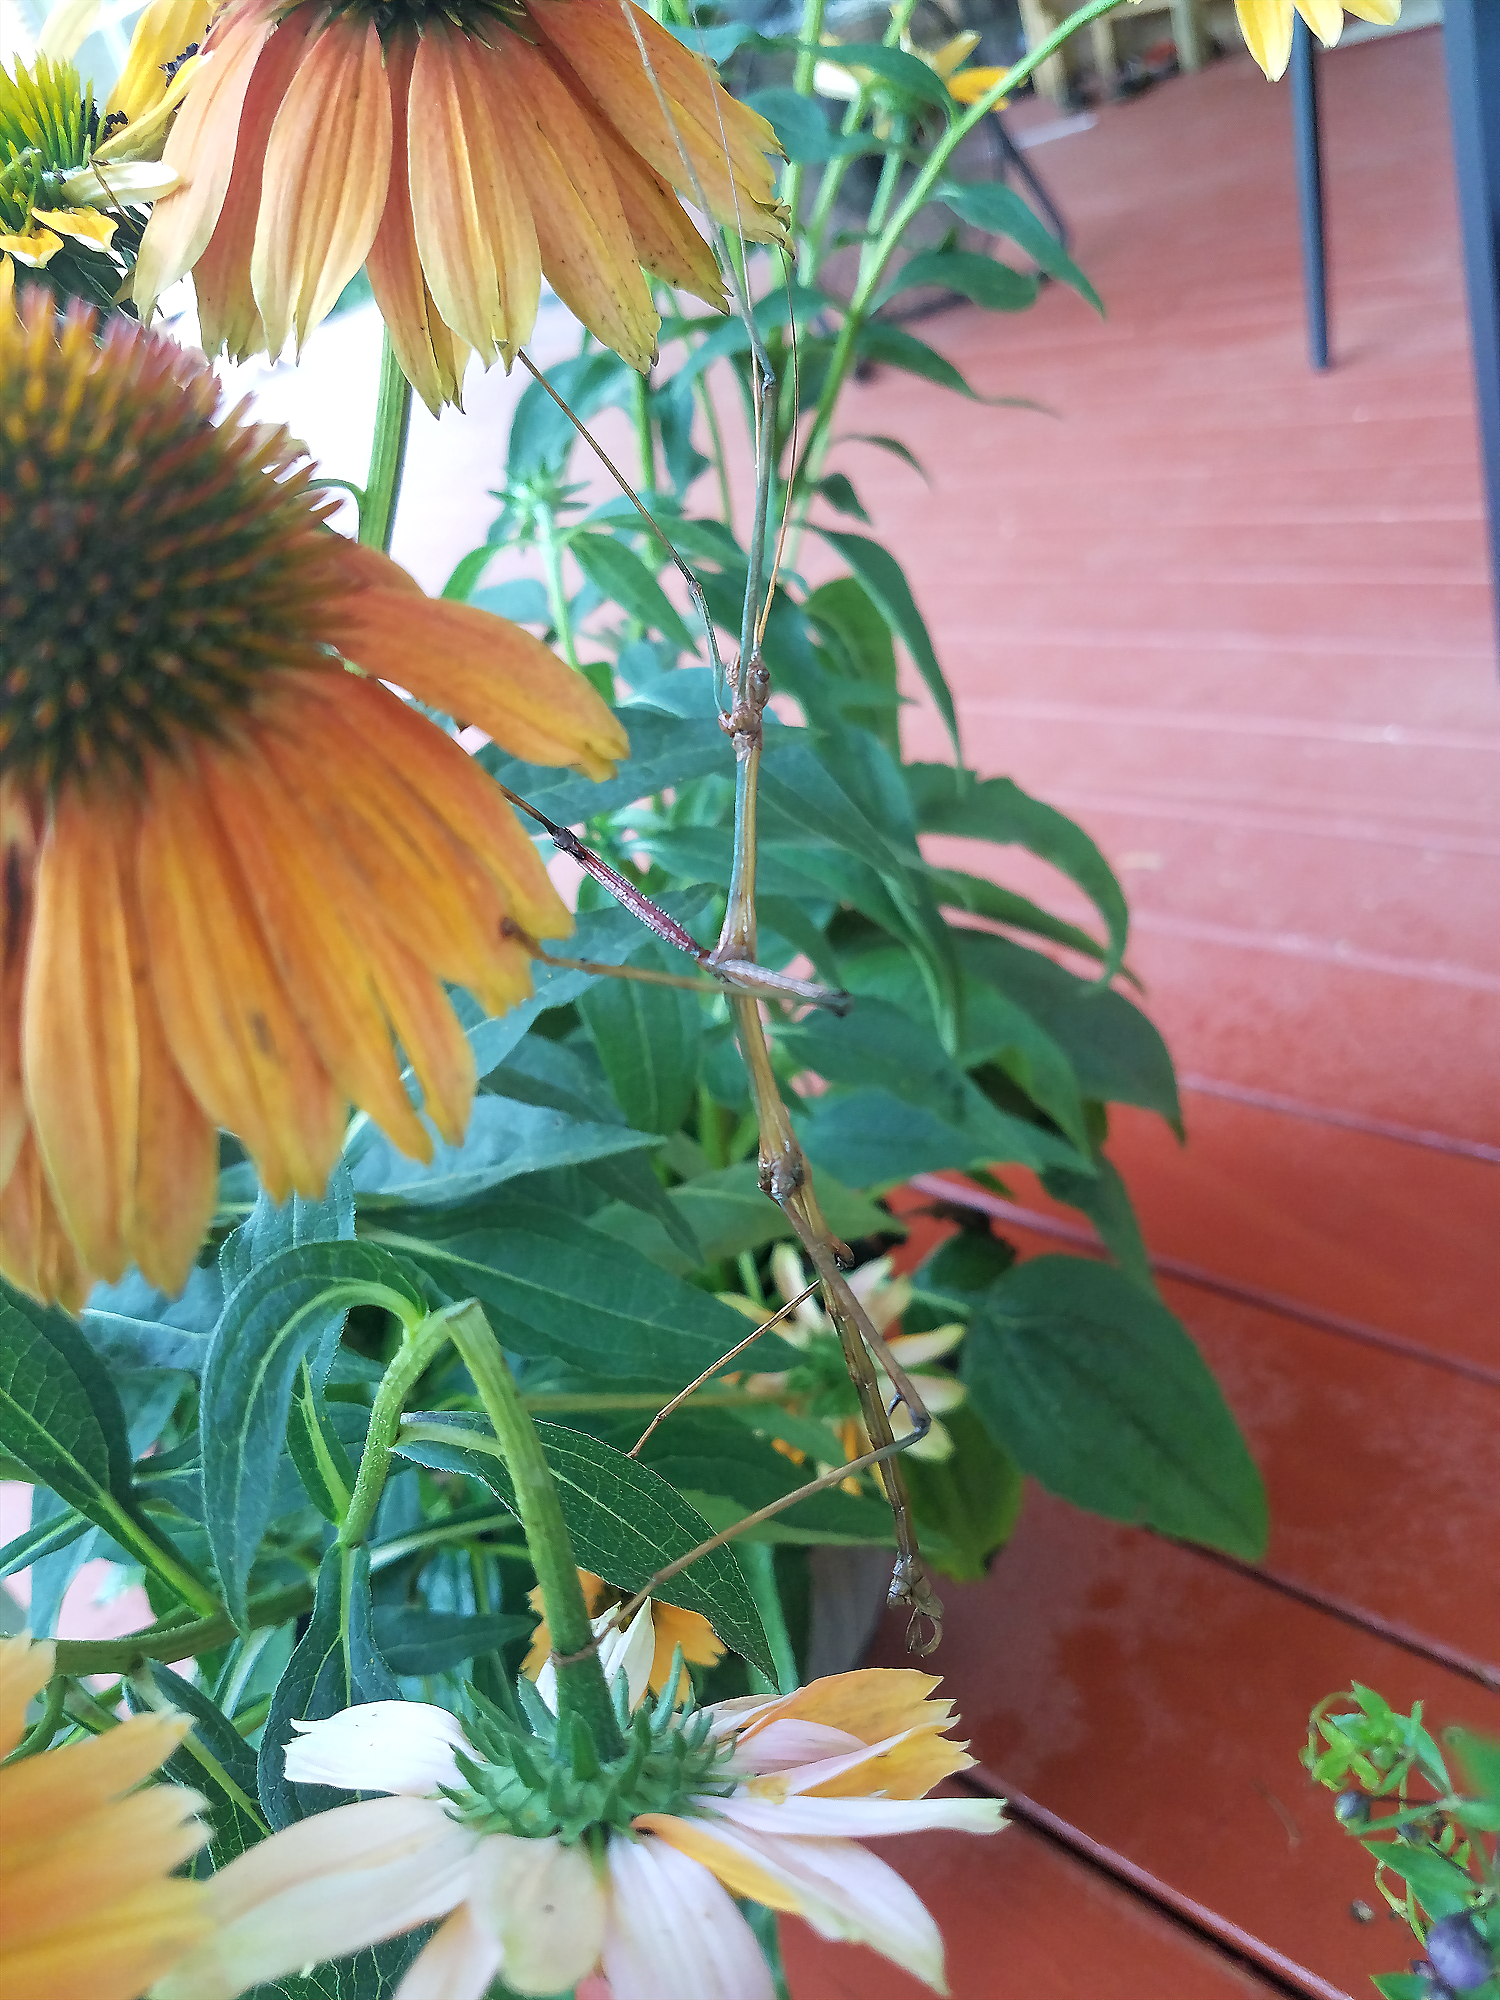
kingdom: Animalia
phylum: Arthropoda
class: Insecta
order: Phasmida
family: Diapheromeridae
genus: Megaphasma
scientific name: Megaphasma denticrus
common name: Giant walkingstick
